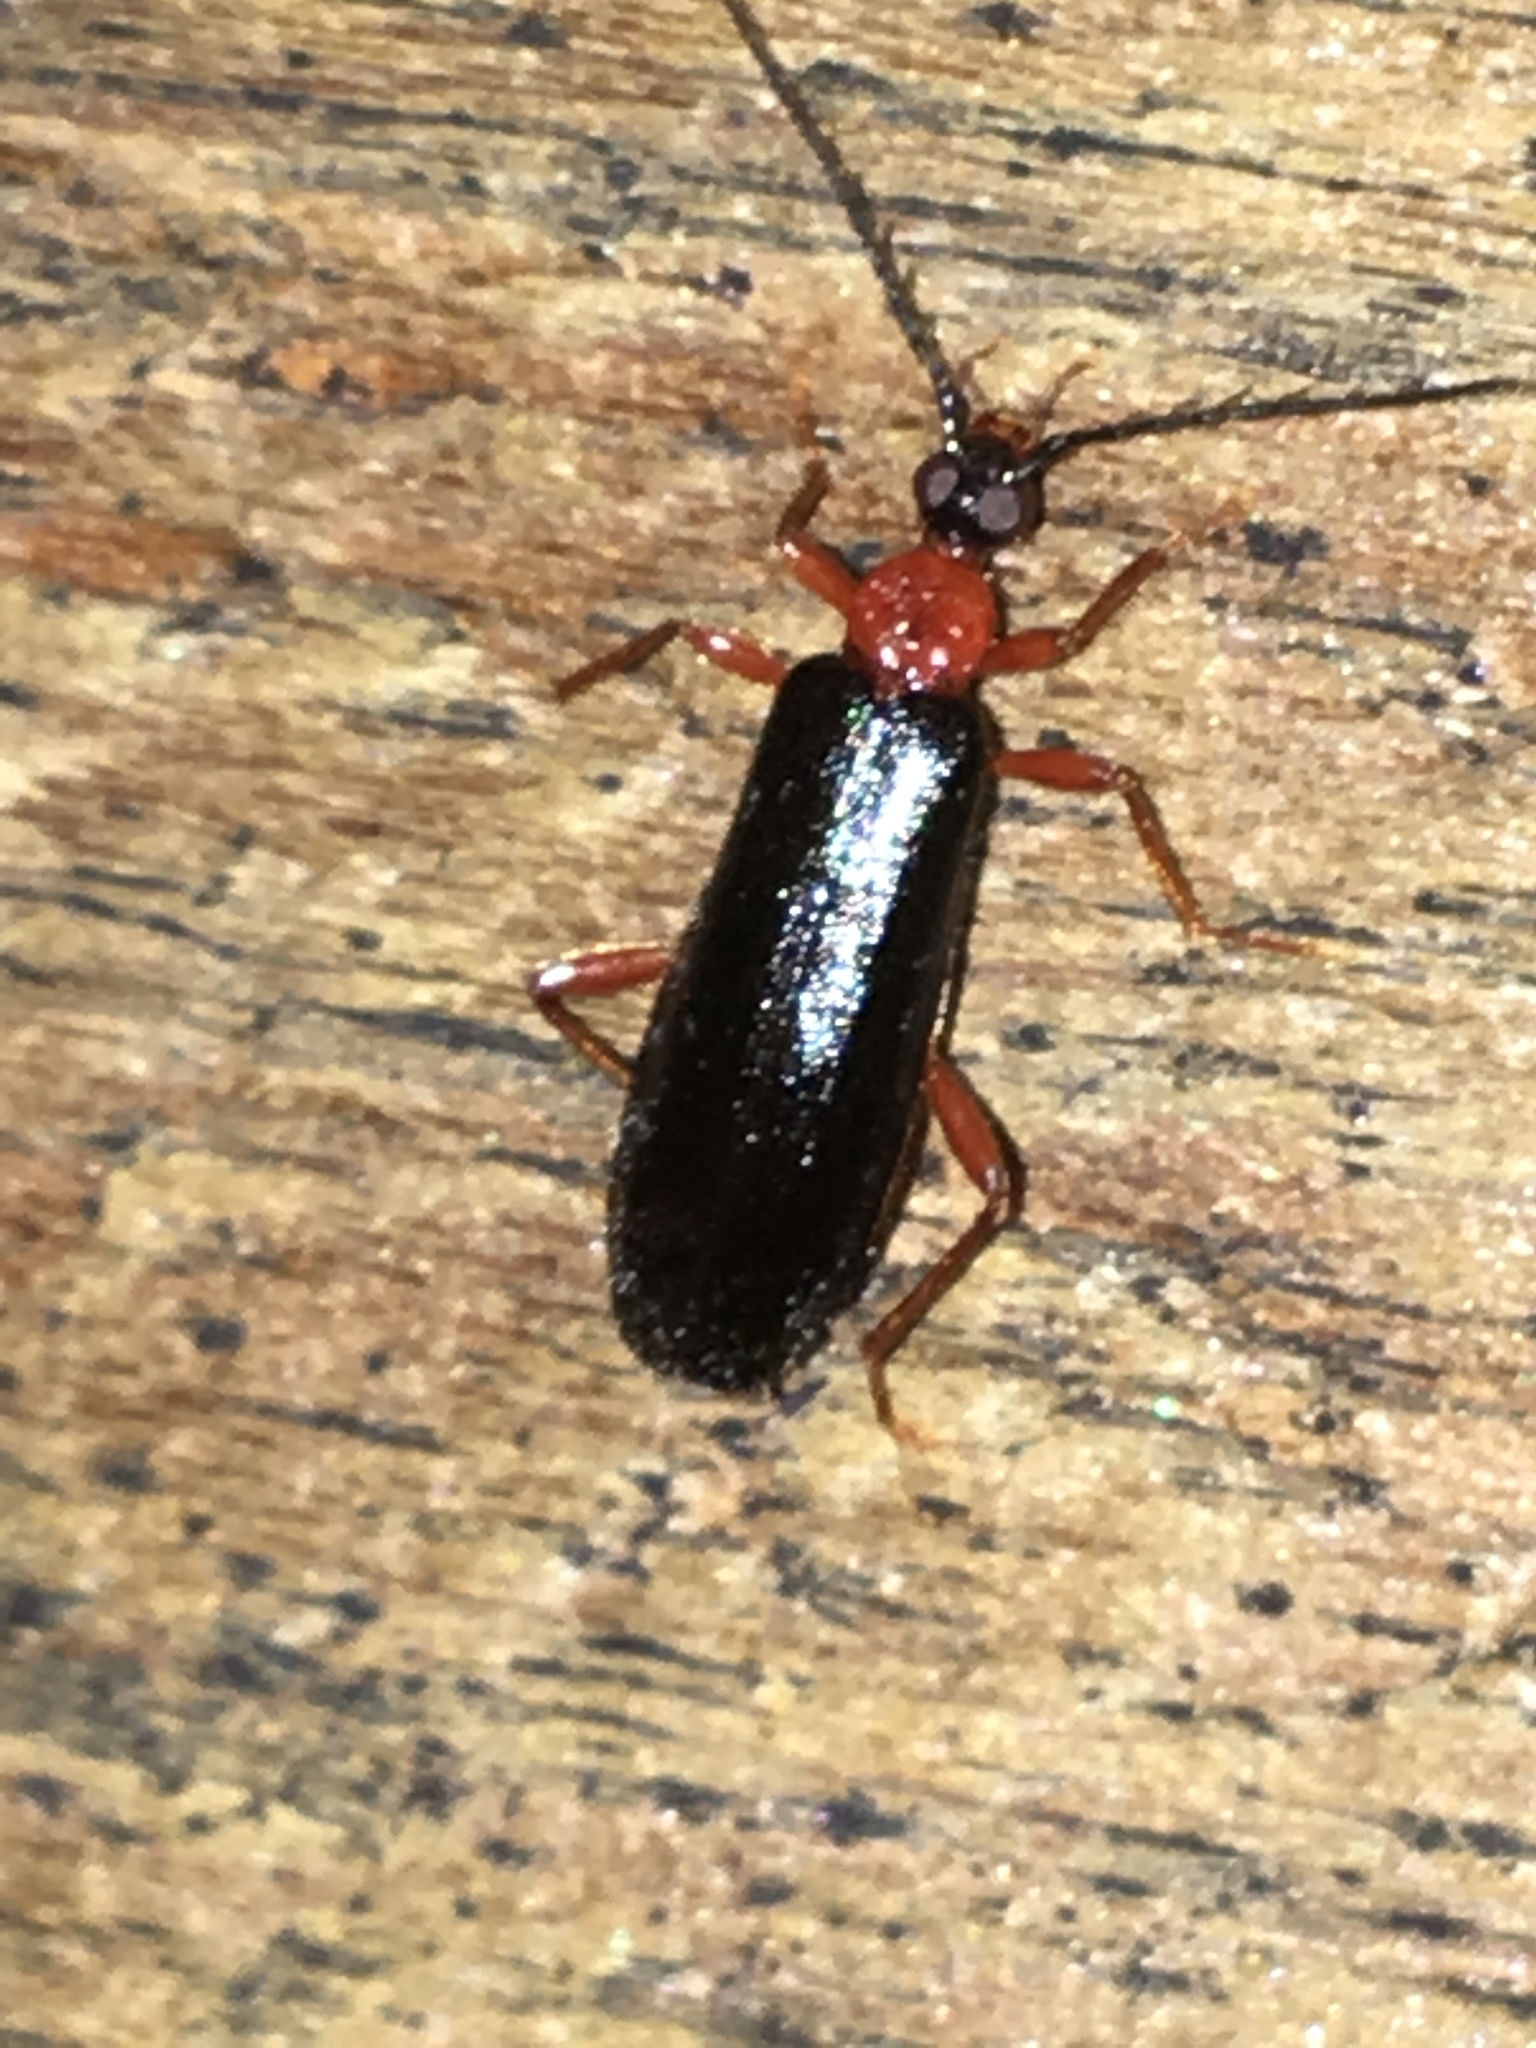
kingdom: Animalia
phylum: Arthropoda
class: Insecta
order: Coleoptera
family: Pyrochroidae
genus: Dendroides
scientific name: Dendroides canadensis
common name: Canada fire-colored beetle
